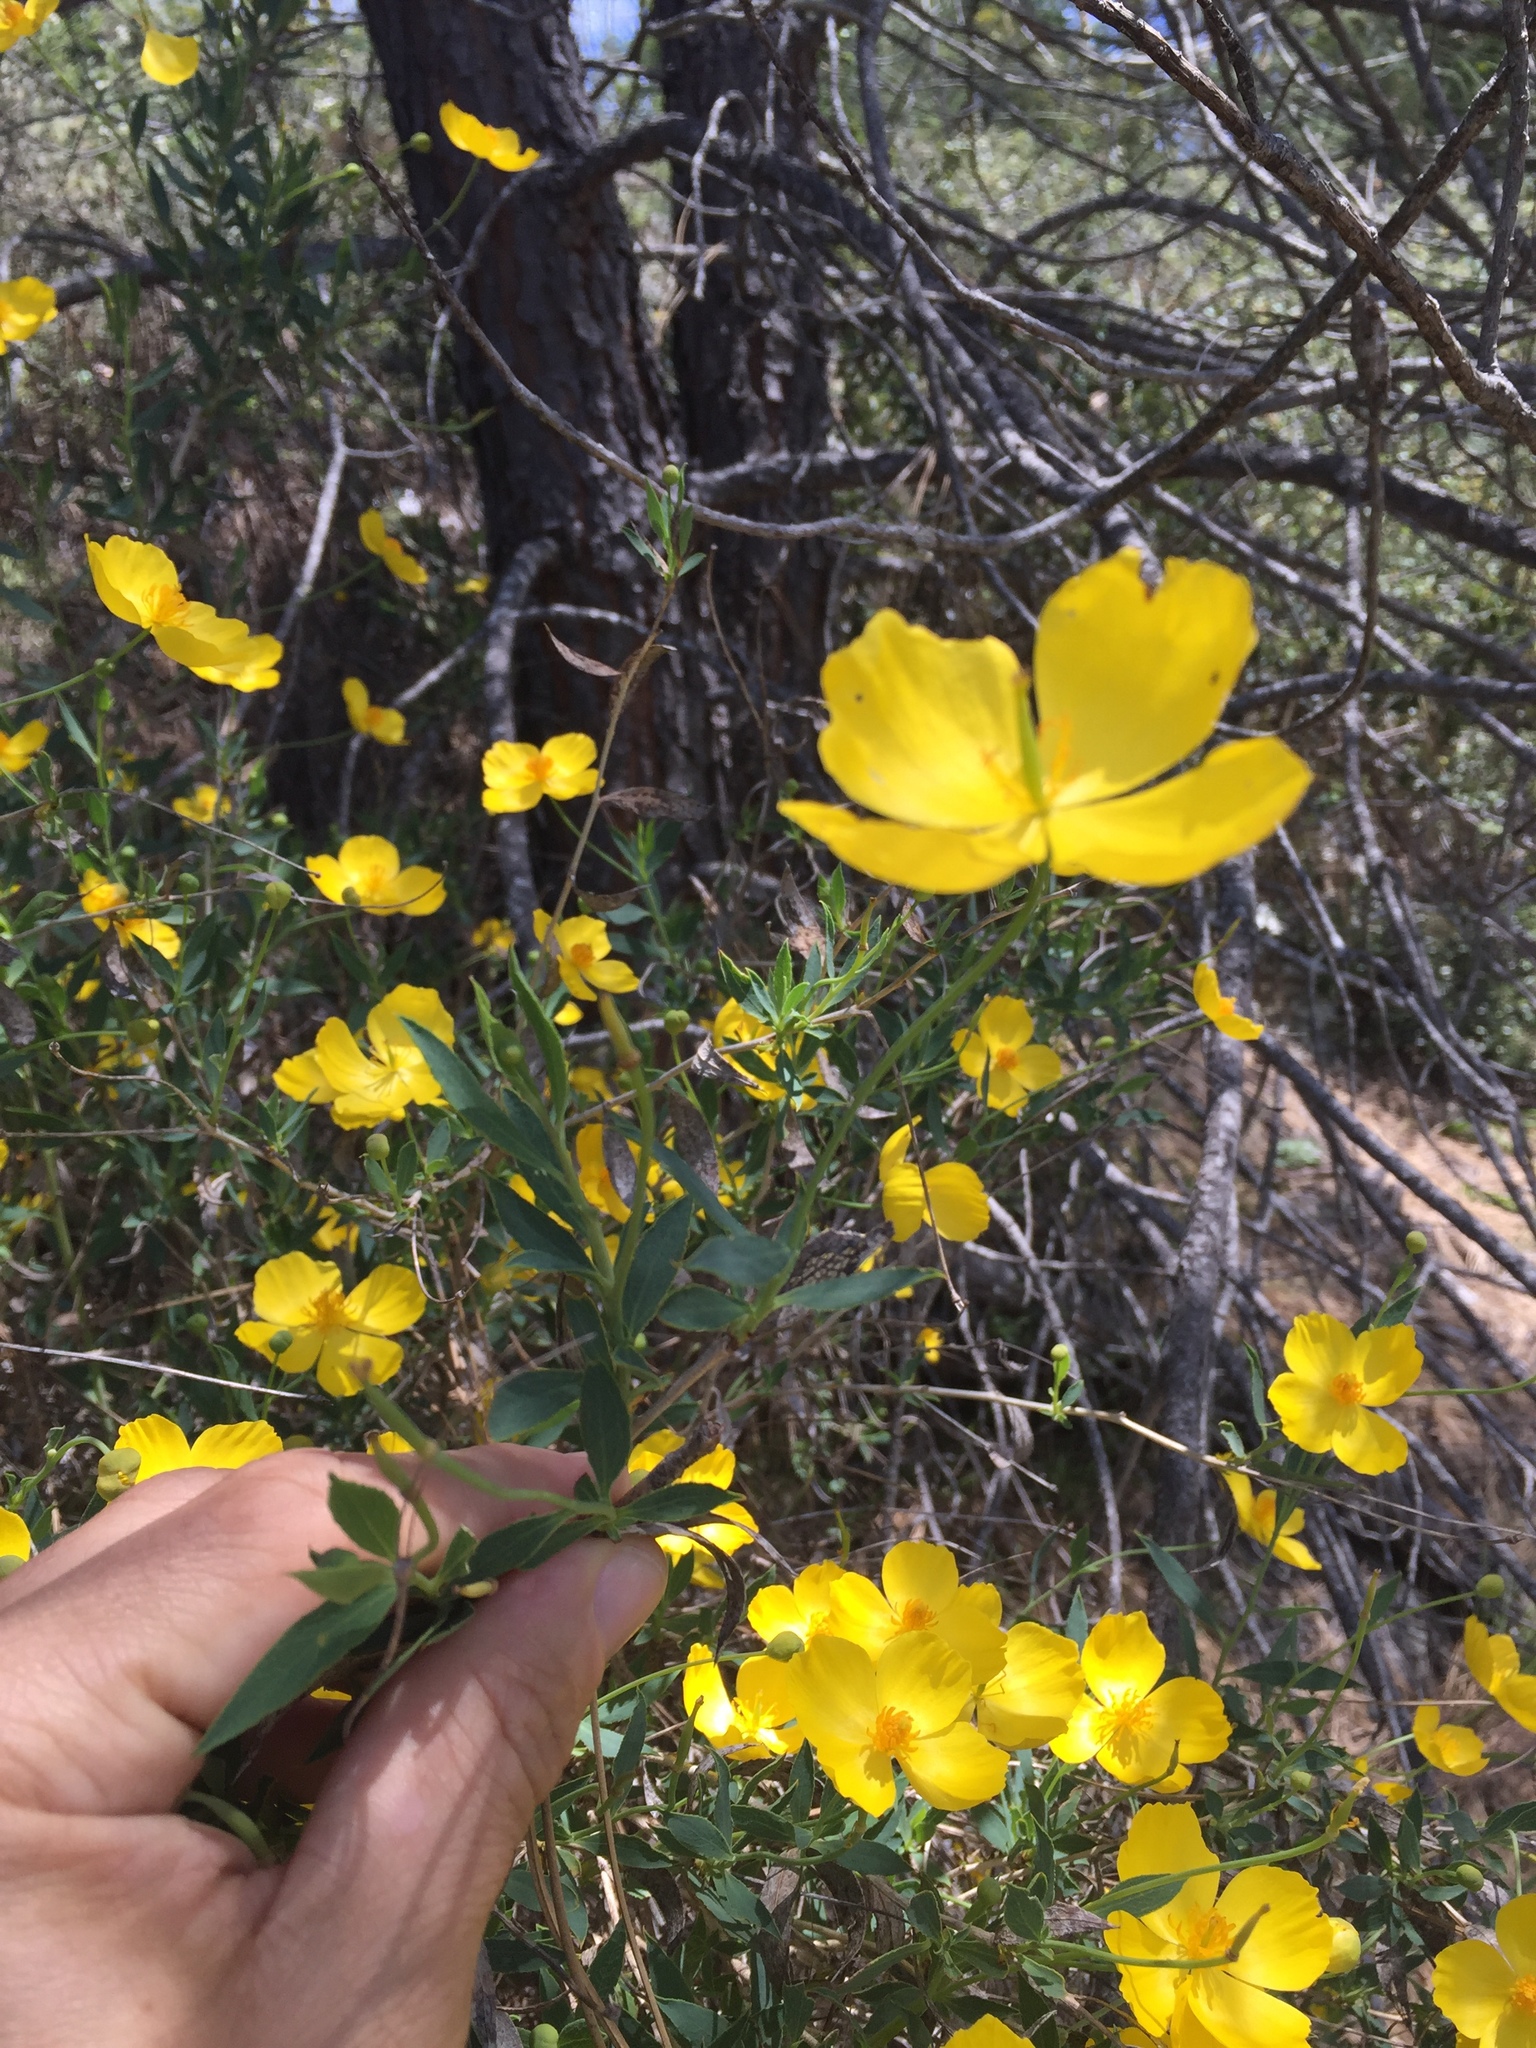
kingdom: Plantae
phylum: Tracheophyta
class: Magnoliopsida
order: Ranunculales
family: Papaveraceae
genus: Dendromecon
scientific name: Dendromecon rigida
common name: Tree poppy
